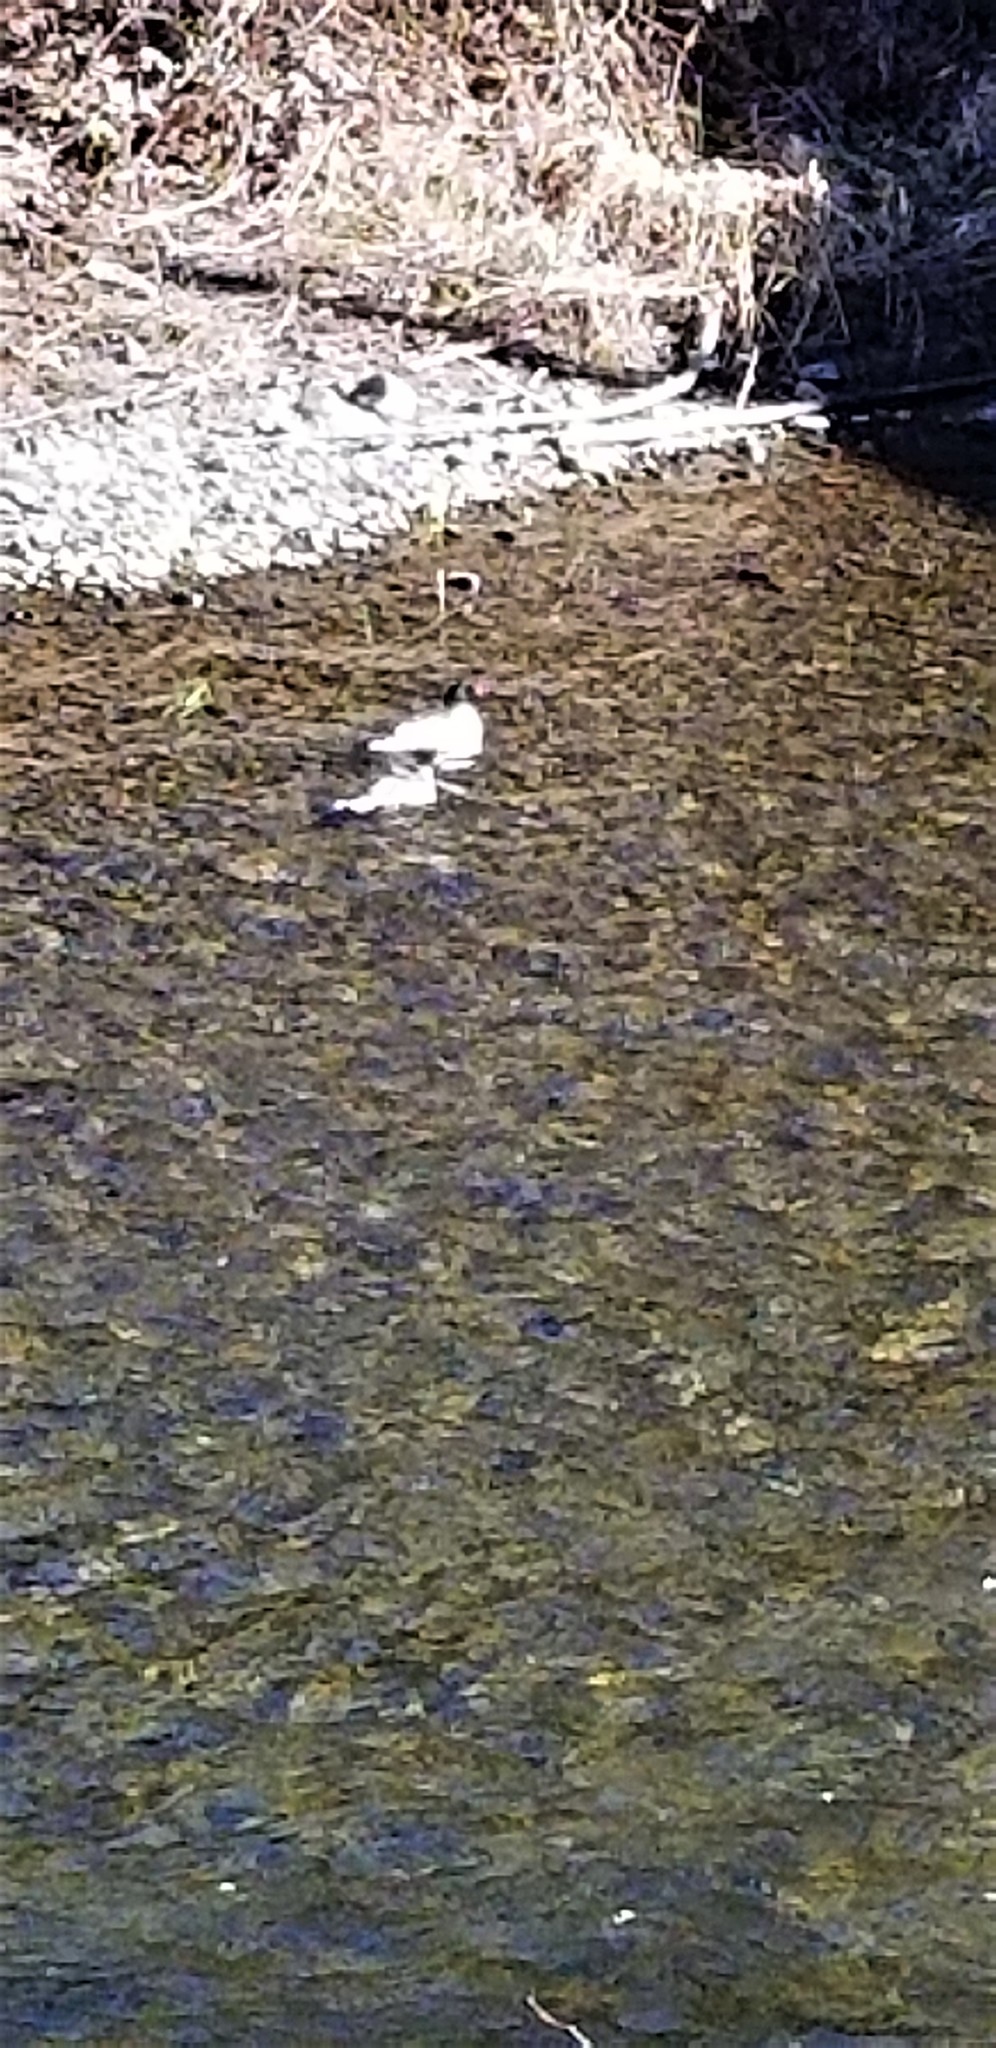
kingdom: Animalia
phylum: Chordata
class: Aves
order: Anseriformes
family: Anatidae
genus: Mergus
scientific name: Mergus merganser
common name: Common merganser
